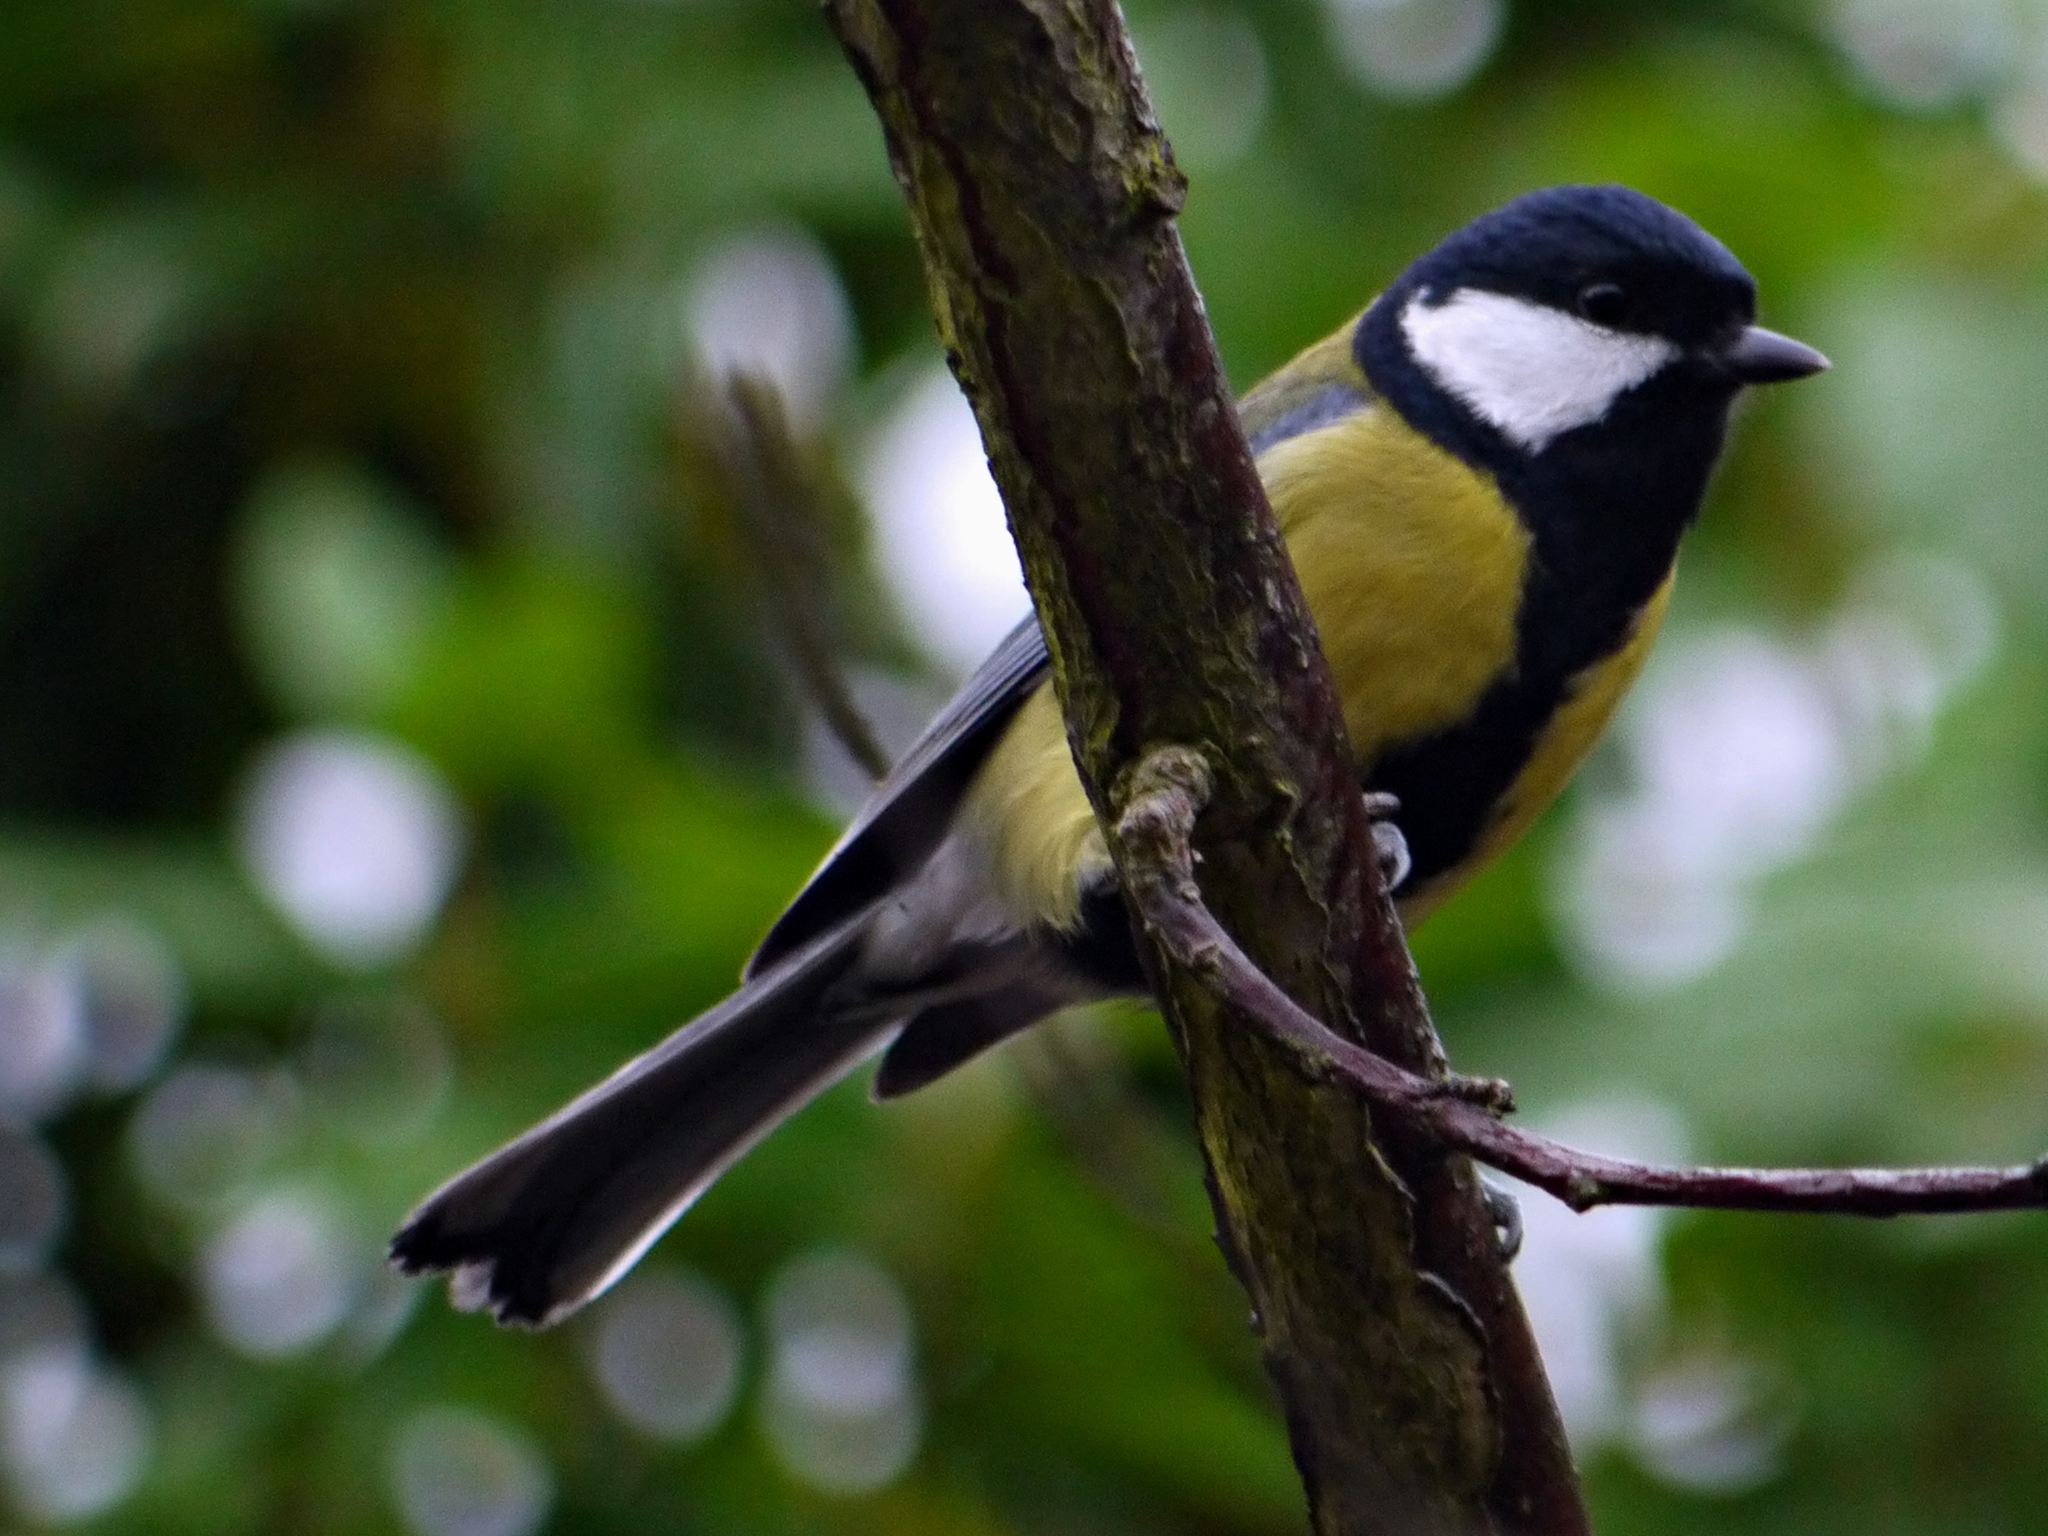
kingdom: Animalia
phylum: Chordata
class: Aves
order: Passeriformes
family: Paridae
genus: Parus
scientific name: Parus major
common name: Great tit
